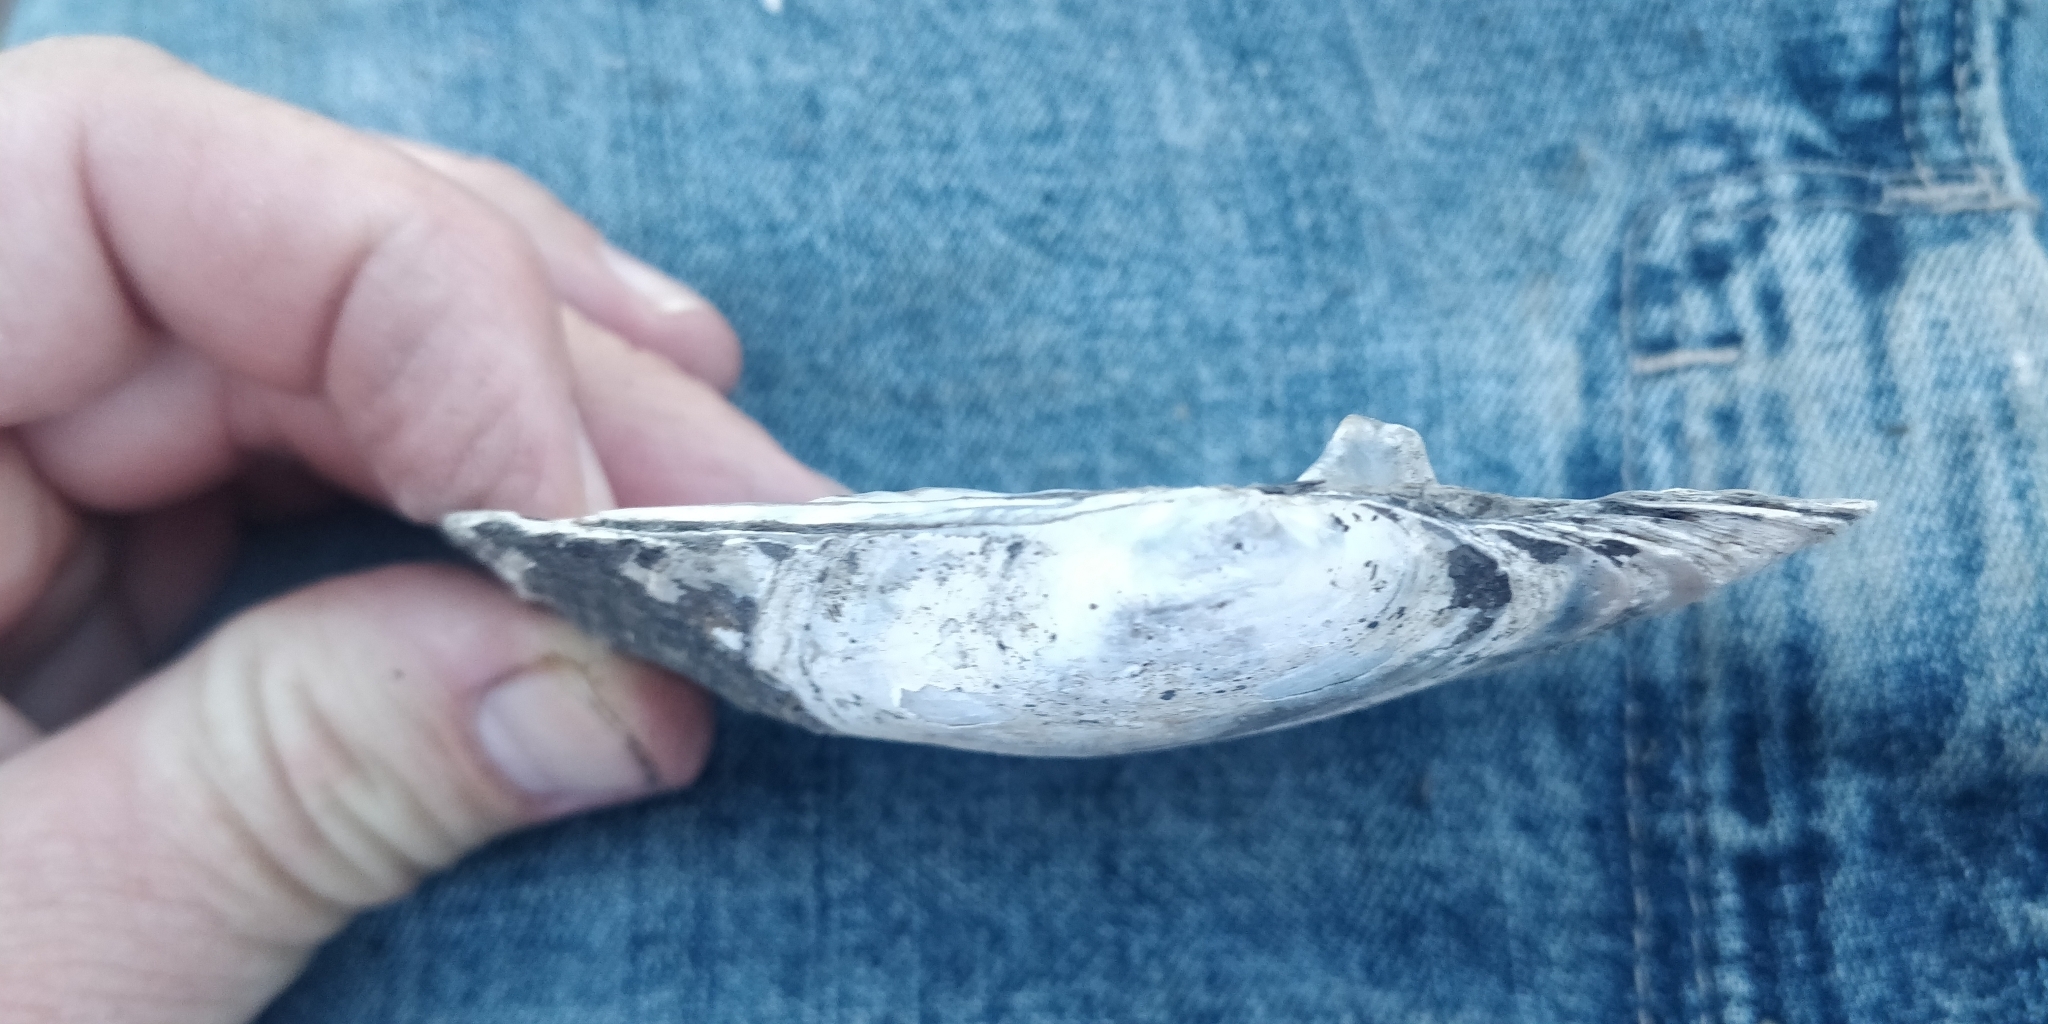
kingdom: Animalia
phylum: Mollusca
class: Bivalvia
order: Unionida
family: Unionidae
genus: Lasmigona
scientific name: Lasmigona complanata
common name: White heelsplitter
